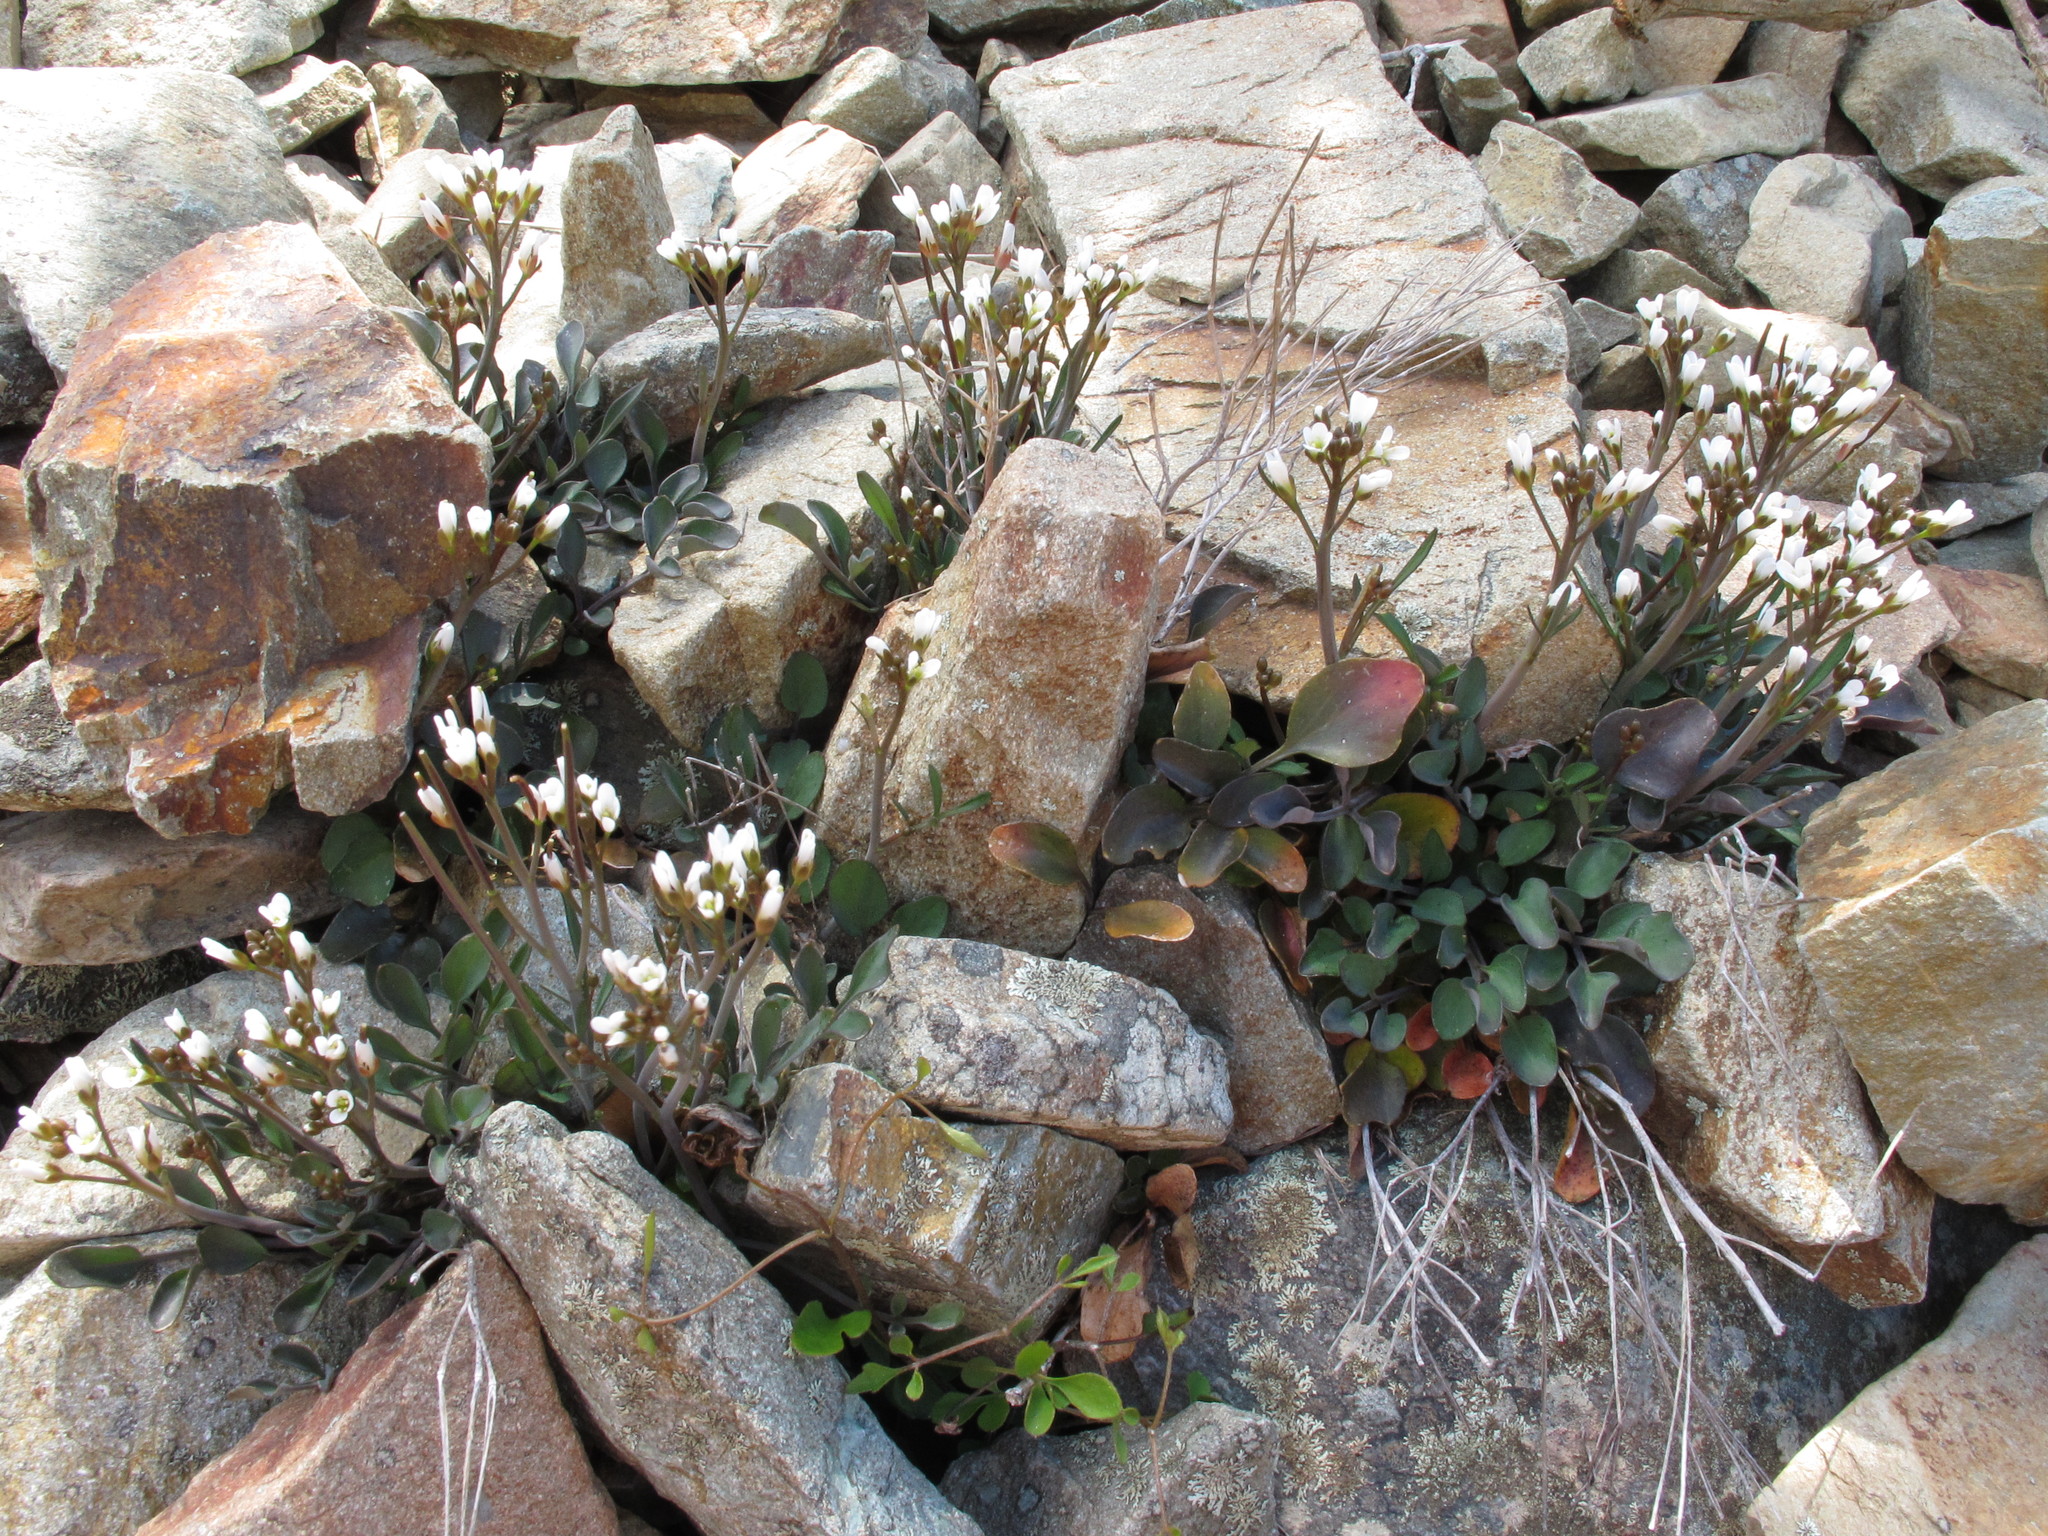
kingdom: Plantae
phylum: Tracheophyta
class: Magnoliopsida
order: Brassicales
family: Brassicaceae
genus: Cardamine
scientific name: Cardamine thalassica
